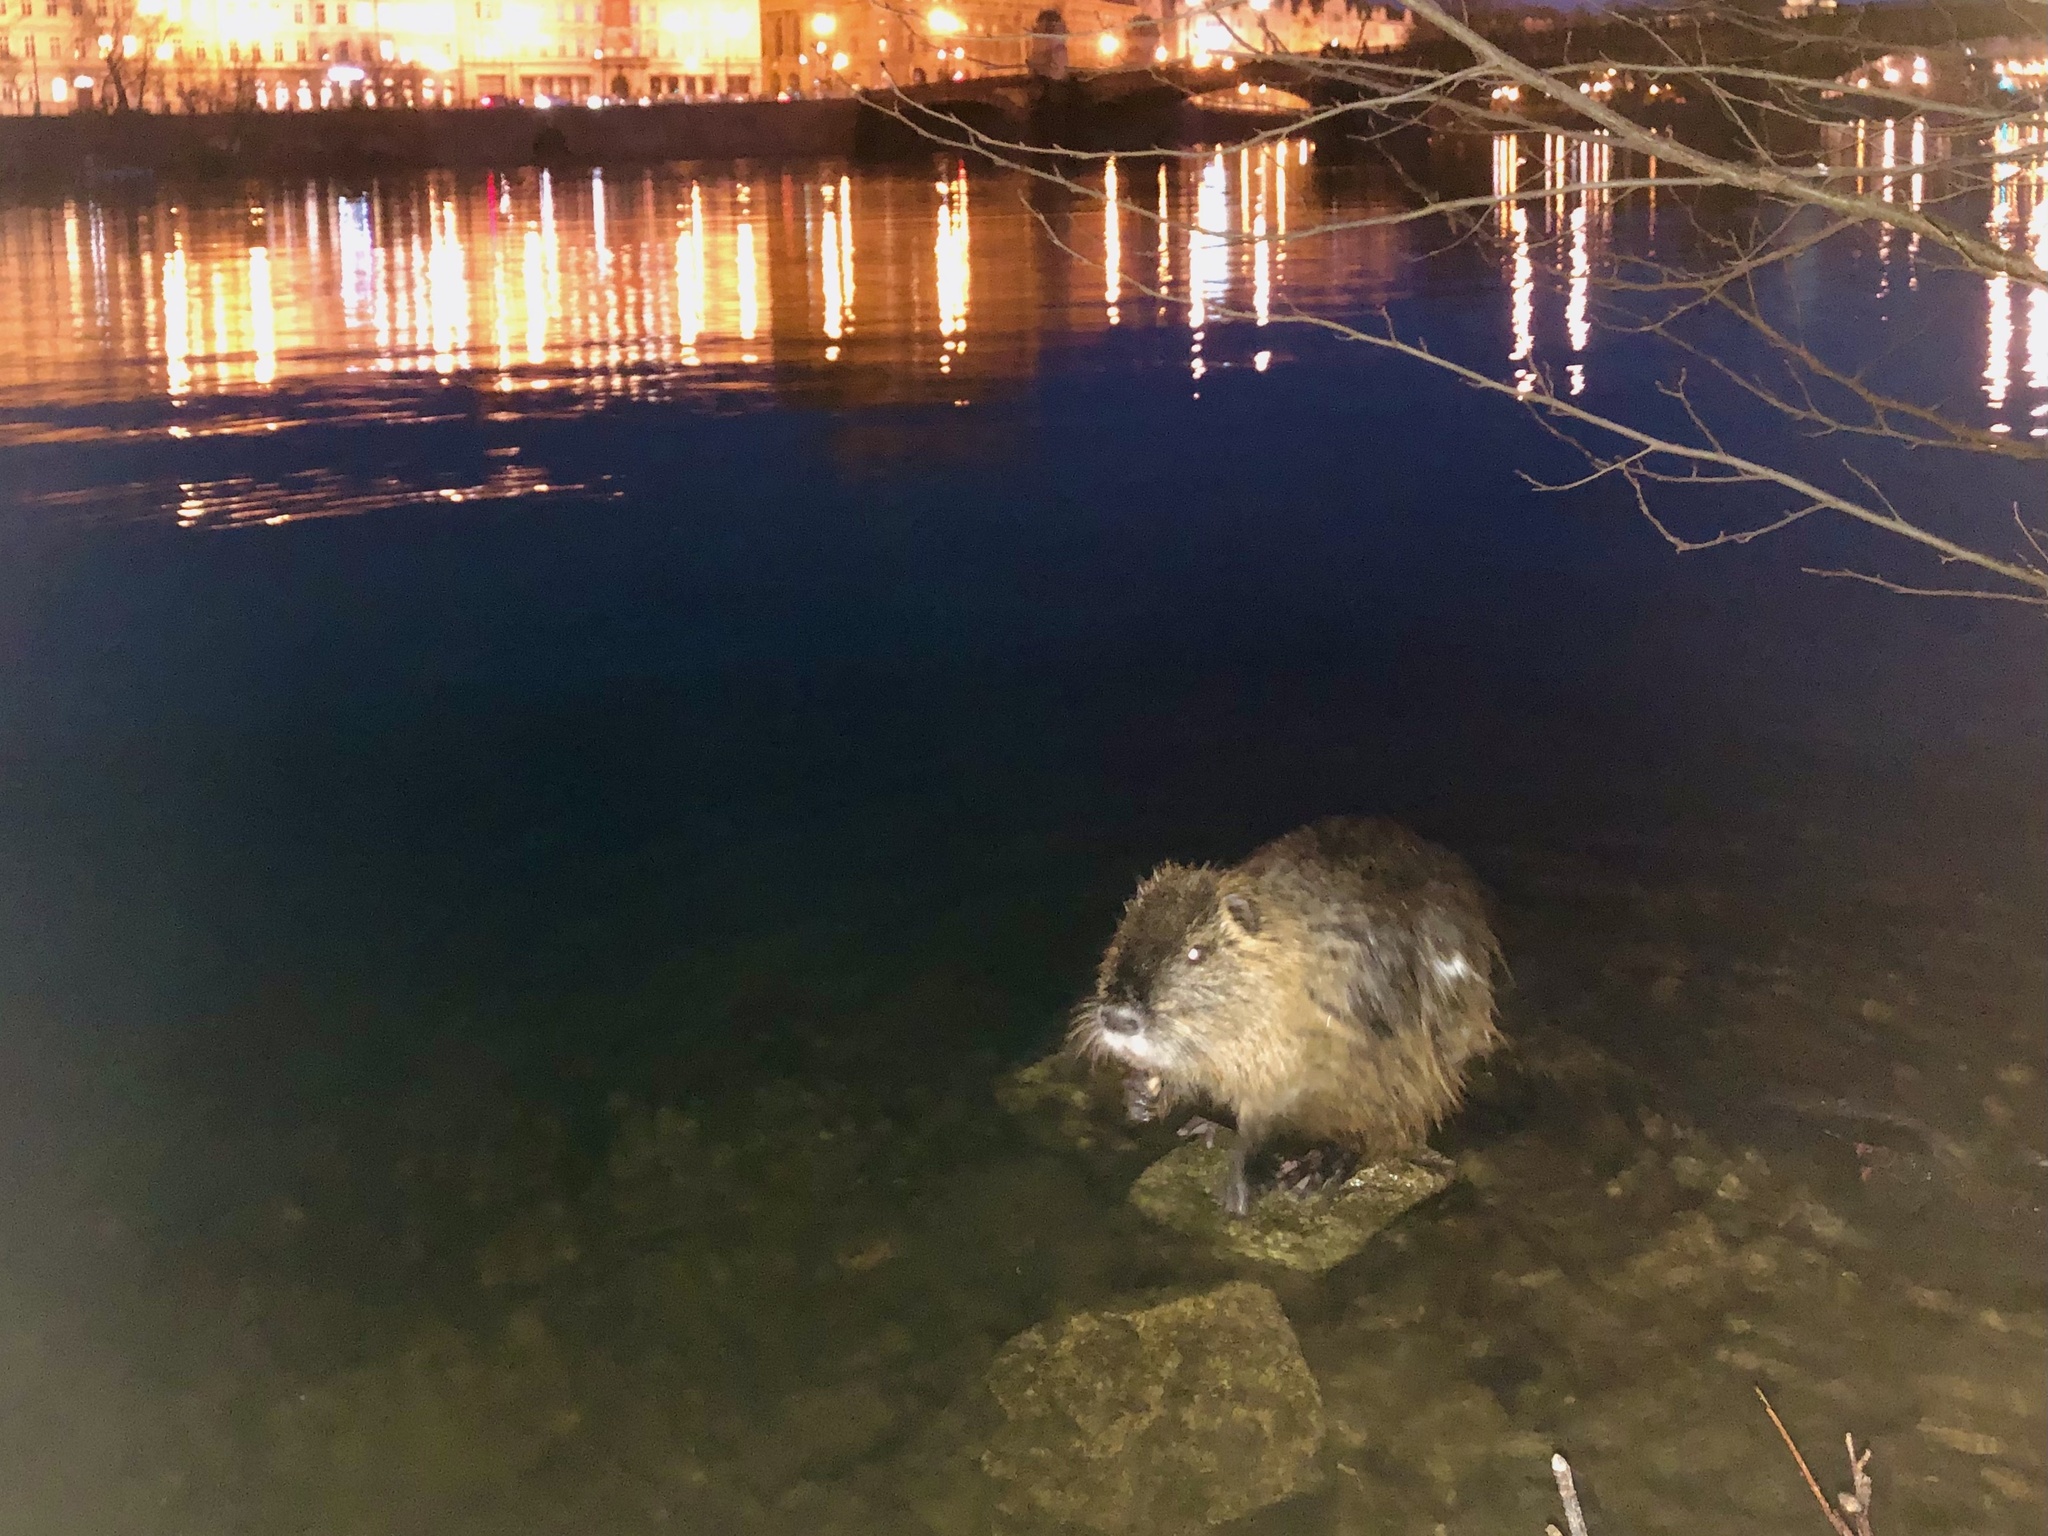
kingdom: Animalia
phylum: Chordata
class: Mammalia
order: Rodentia
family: Myocastoridae
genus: Myocastor
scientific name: Myocastor coypus
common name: Coypu
